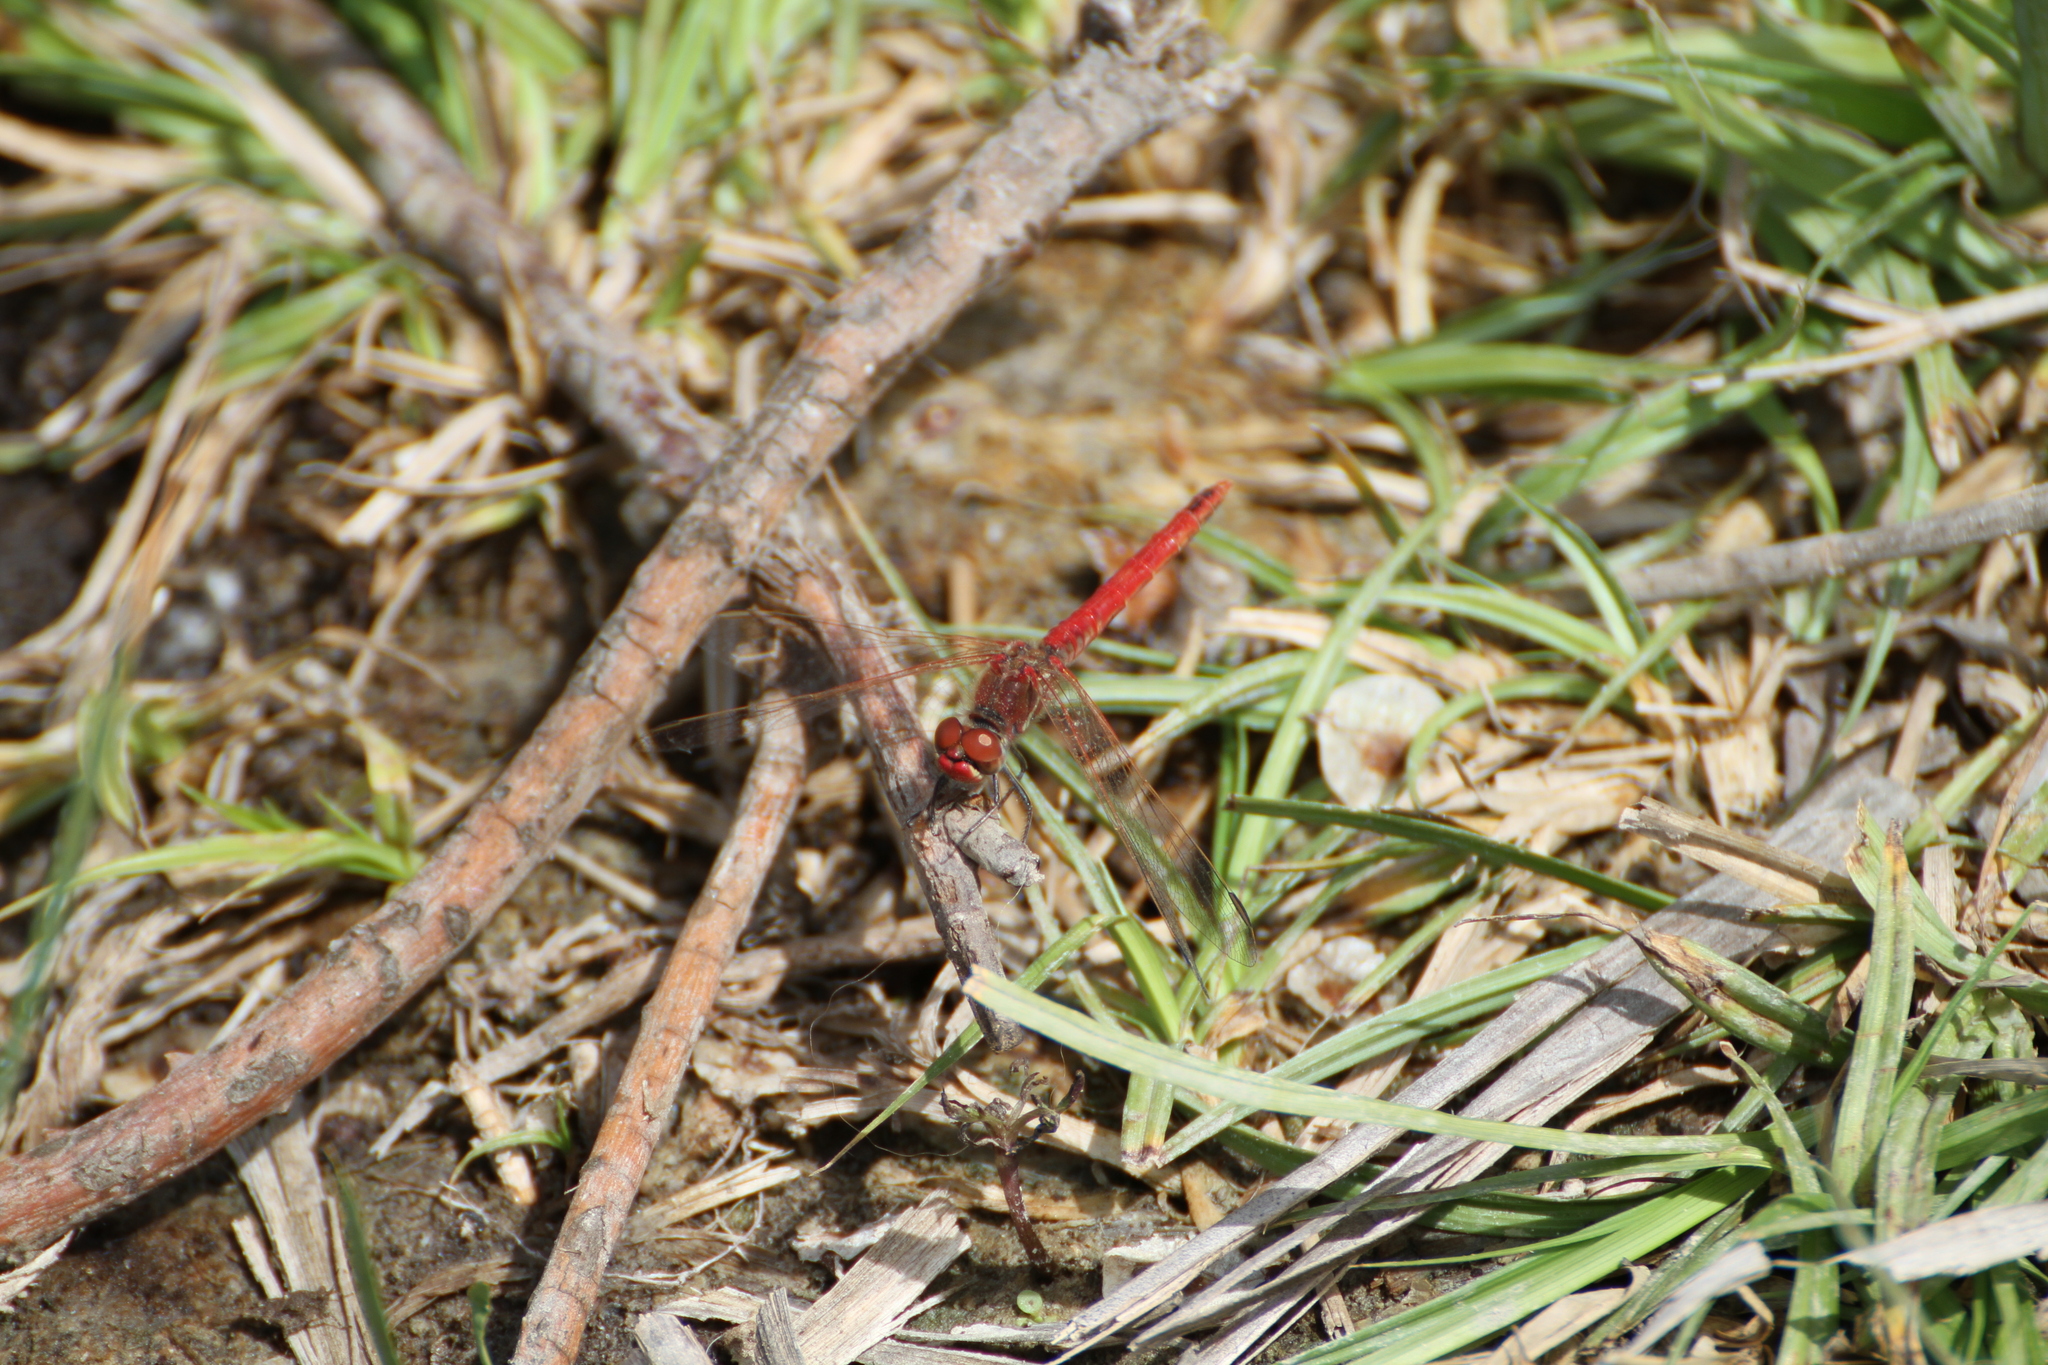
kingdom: Animalia
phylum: Arthropoda
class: Insecta
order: Odonata
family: Libellulidae
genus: Sympetrum
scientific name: Sympetrum fonscolombii
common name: Red-veined darter
